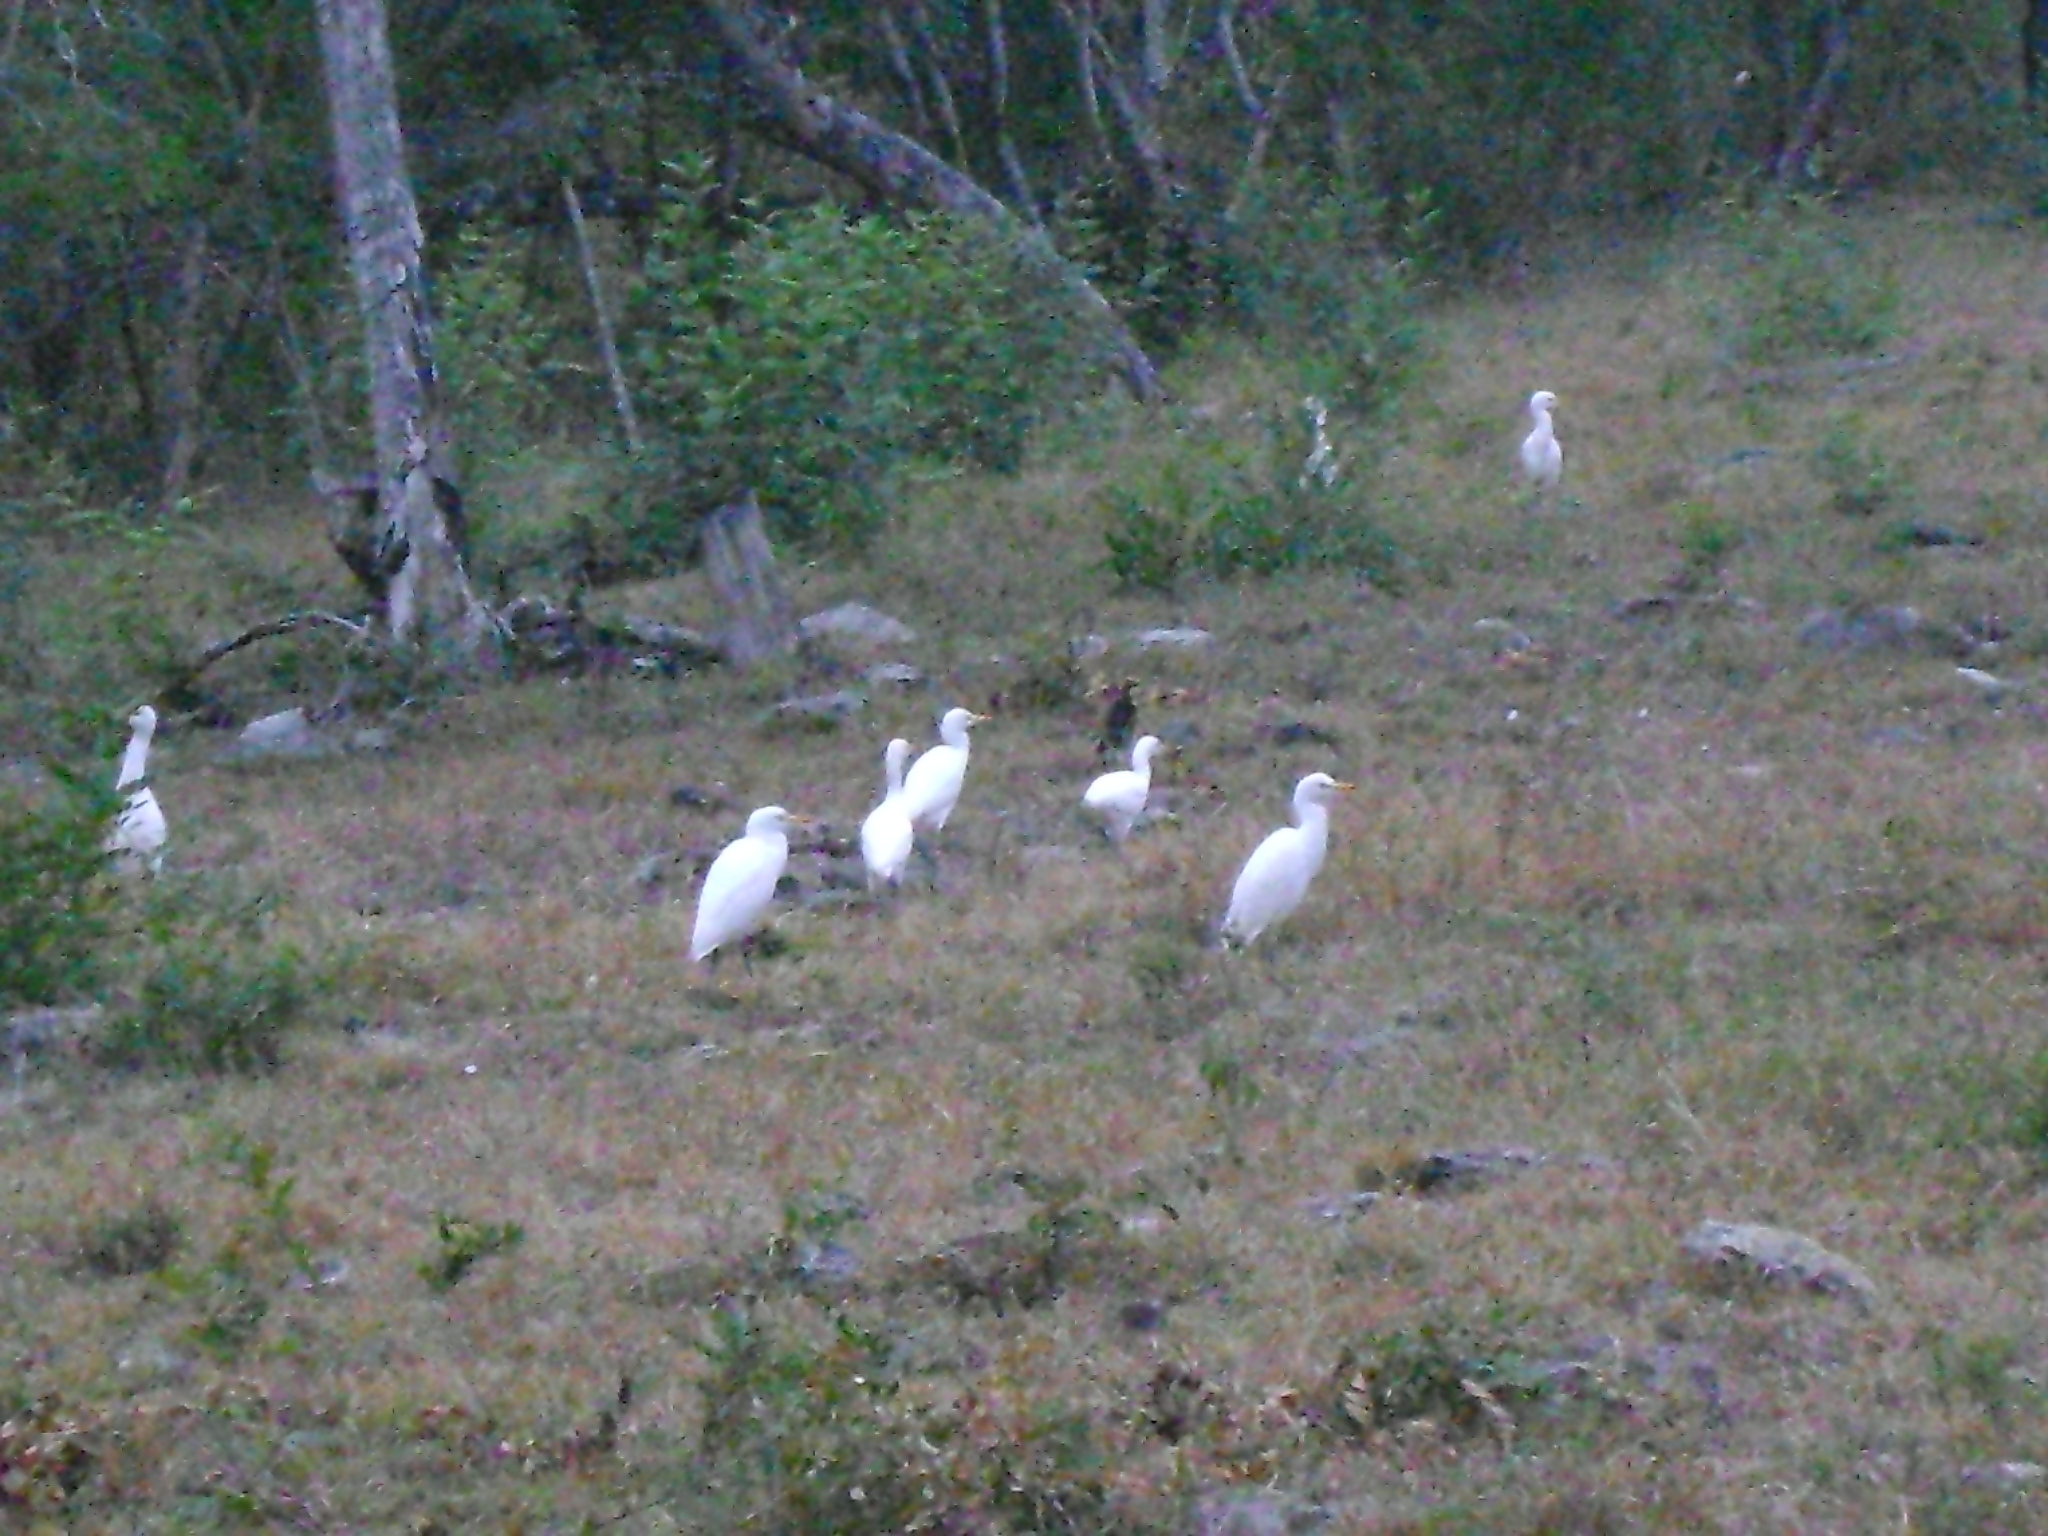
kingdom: Animalia
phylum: Chordata
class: Aves
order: Pelecaniformes
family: Ardeidae
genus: Bubulcus
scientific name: Bubulcus ibis
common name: Cattle egret
